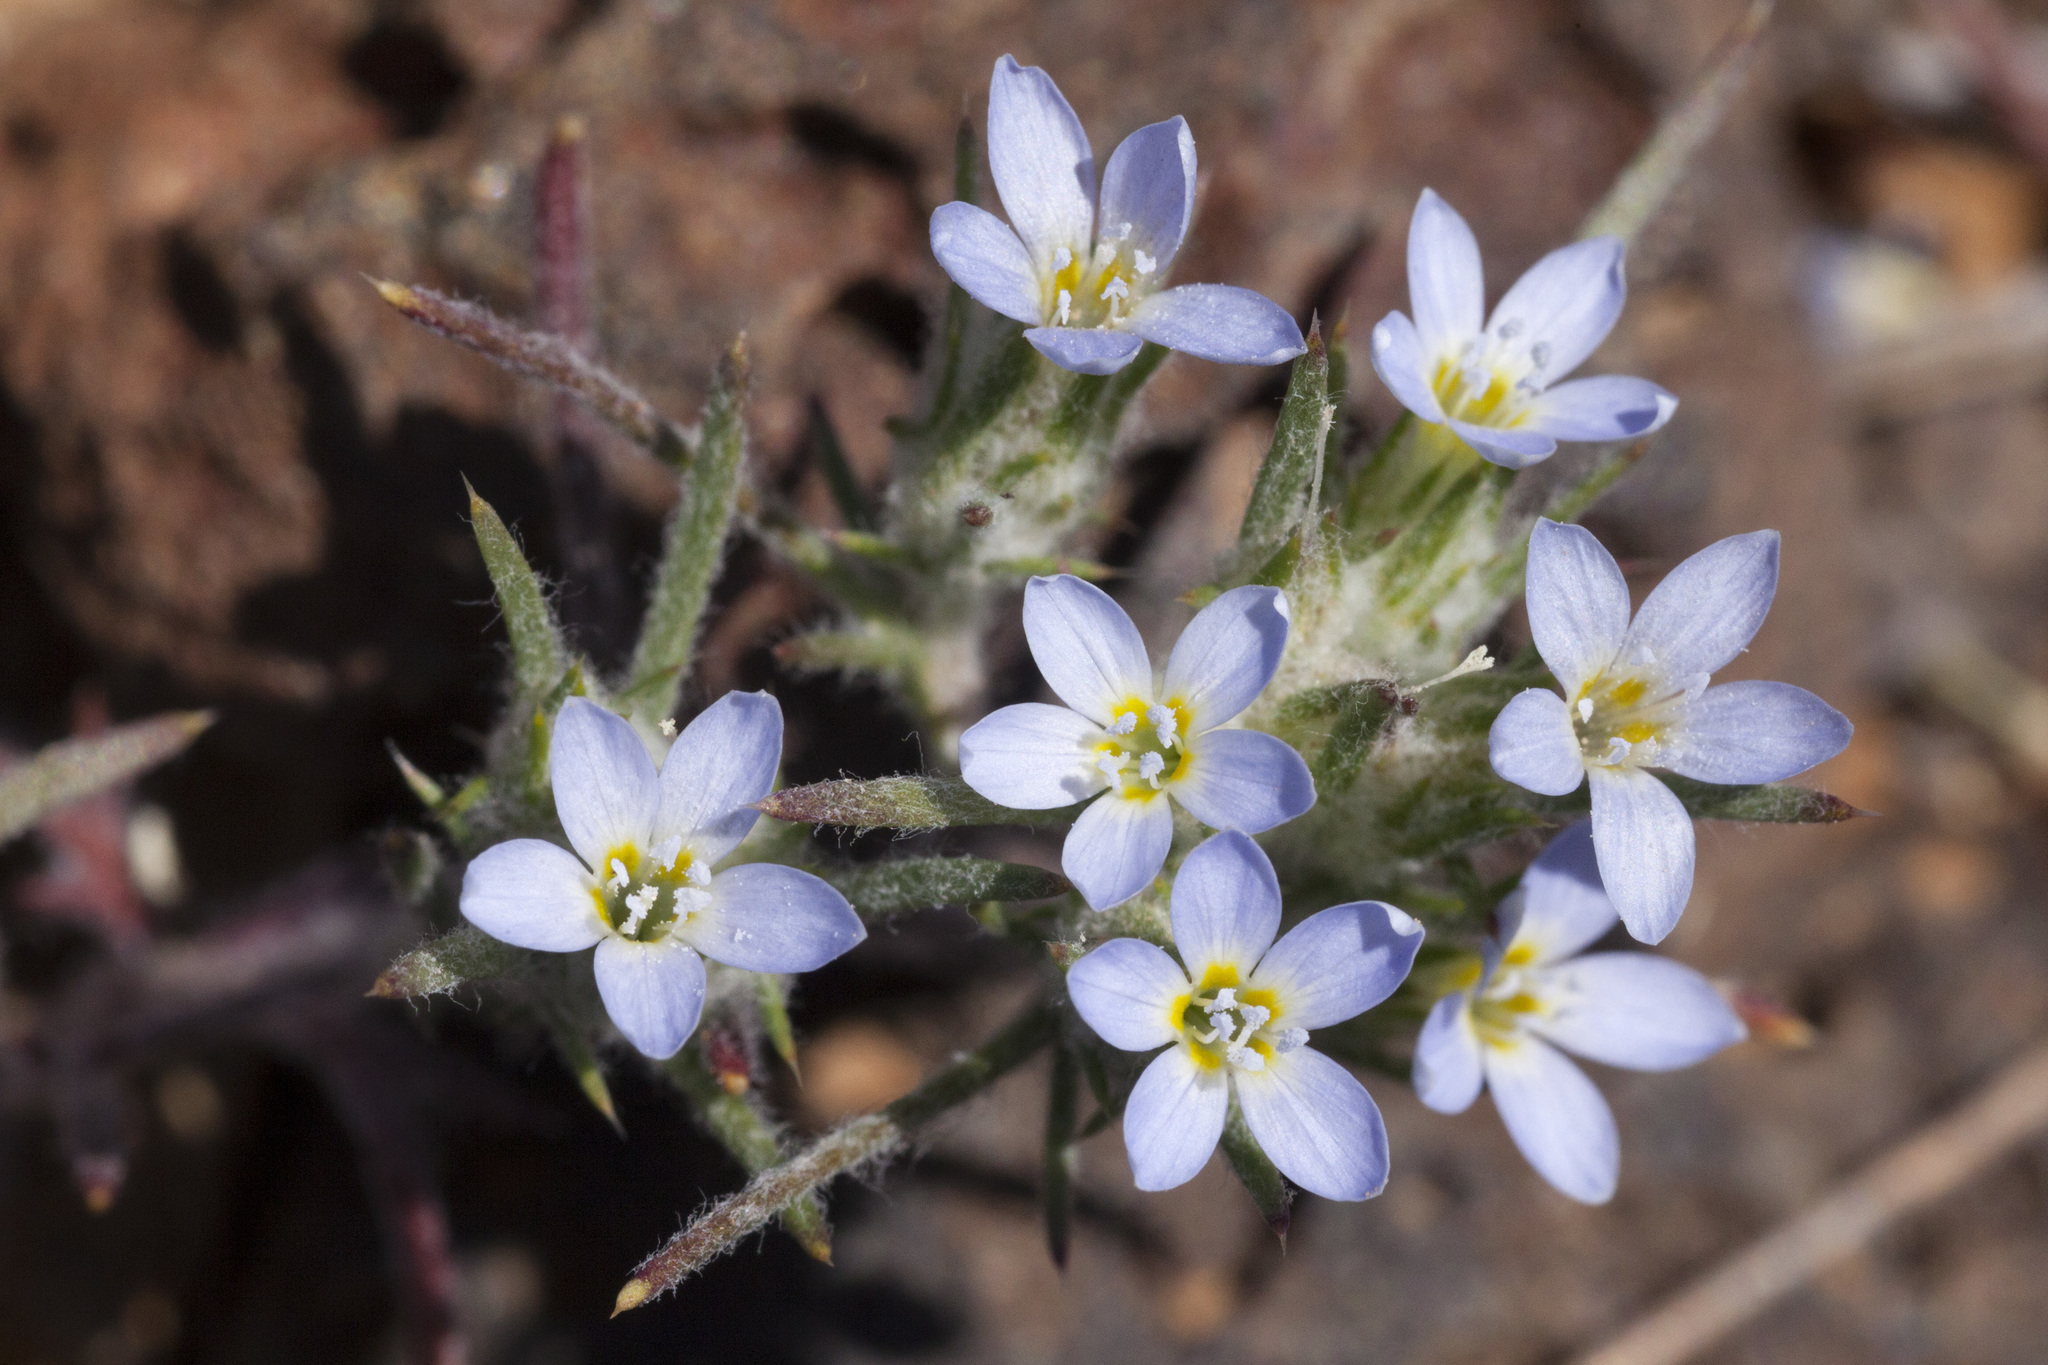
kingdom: Plantae
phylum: Tracheophyta
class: Magnoliopsida
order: Ericales
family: Polemoniaceae
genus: Eriastrum
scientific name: Eriastrum diffusum
